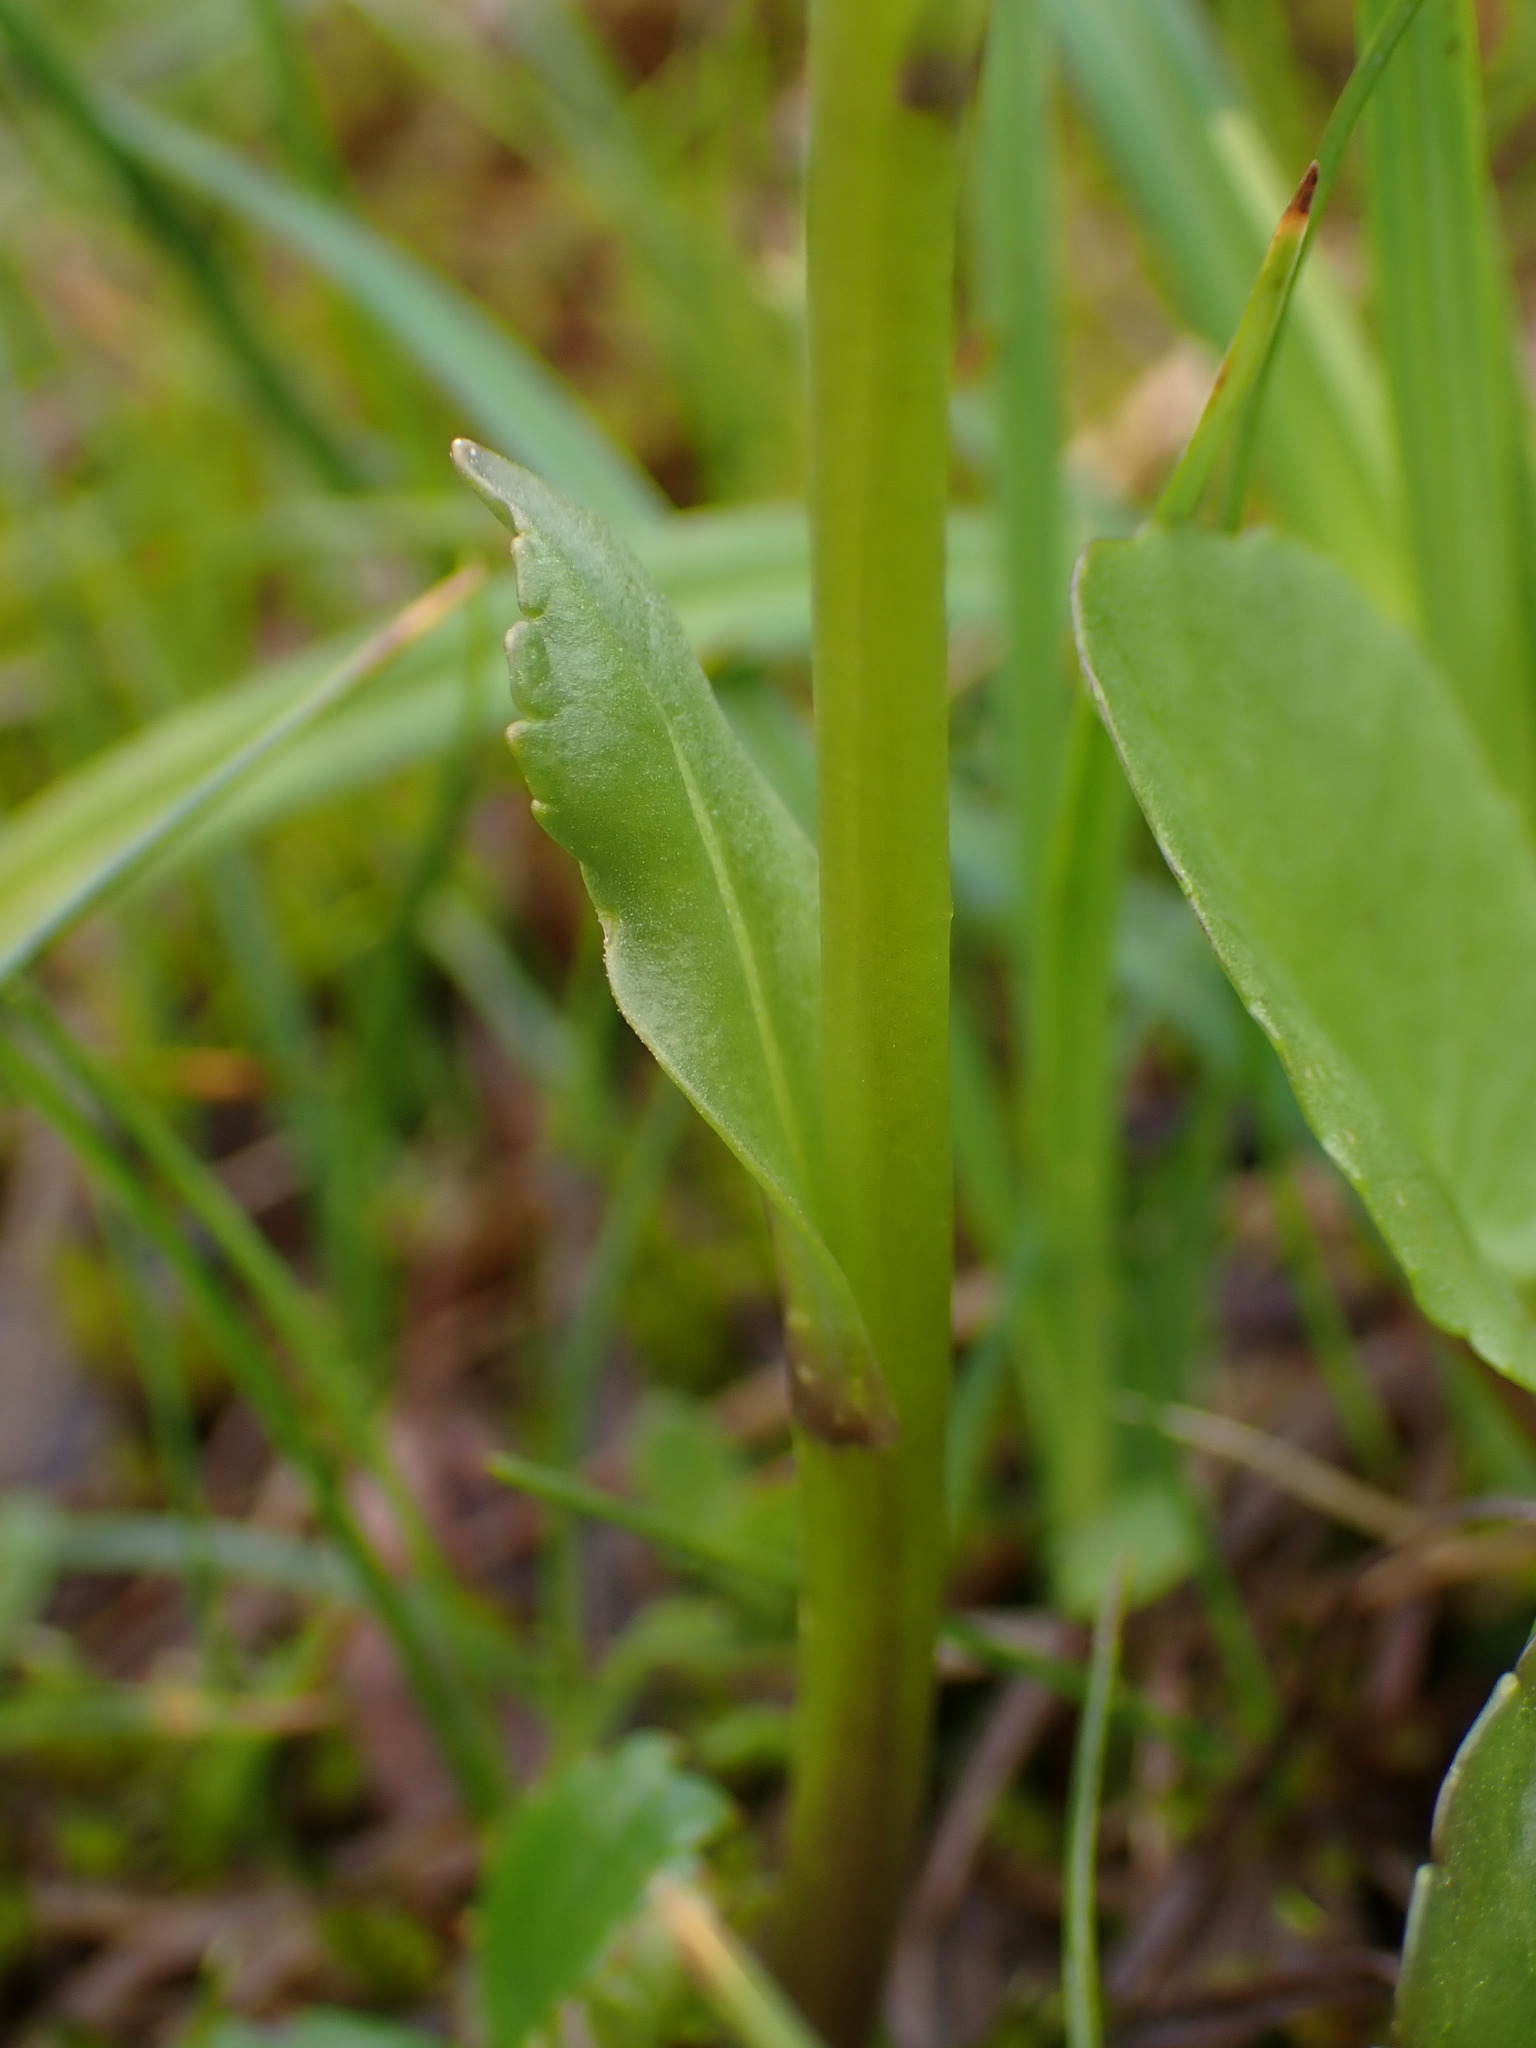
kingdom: Plantae
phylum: Tracheophyta
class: Magnoliopsida
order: Lamiales
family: Plantaginaceae
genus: Lagotis
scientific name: Lagotis glauca
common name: Glaucous weaselsnout
